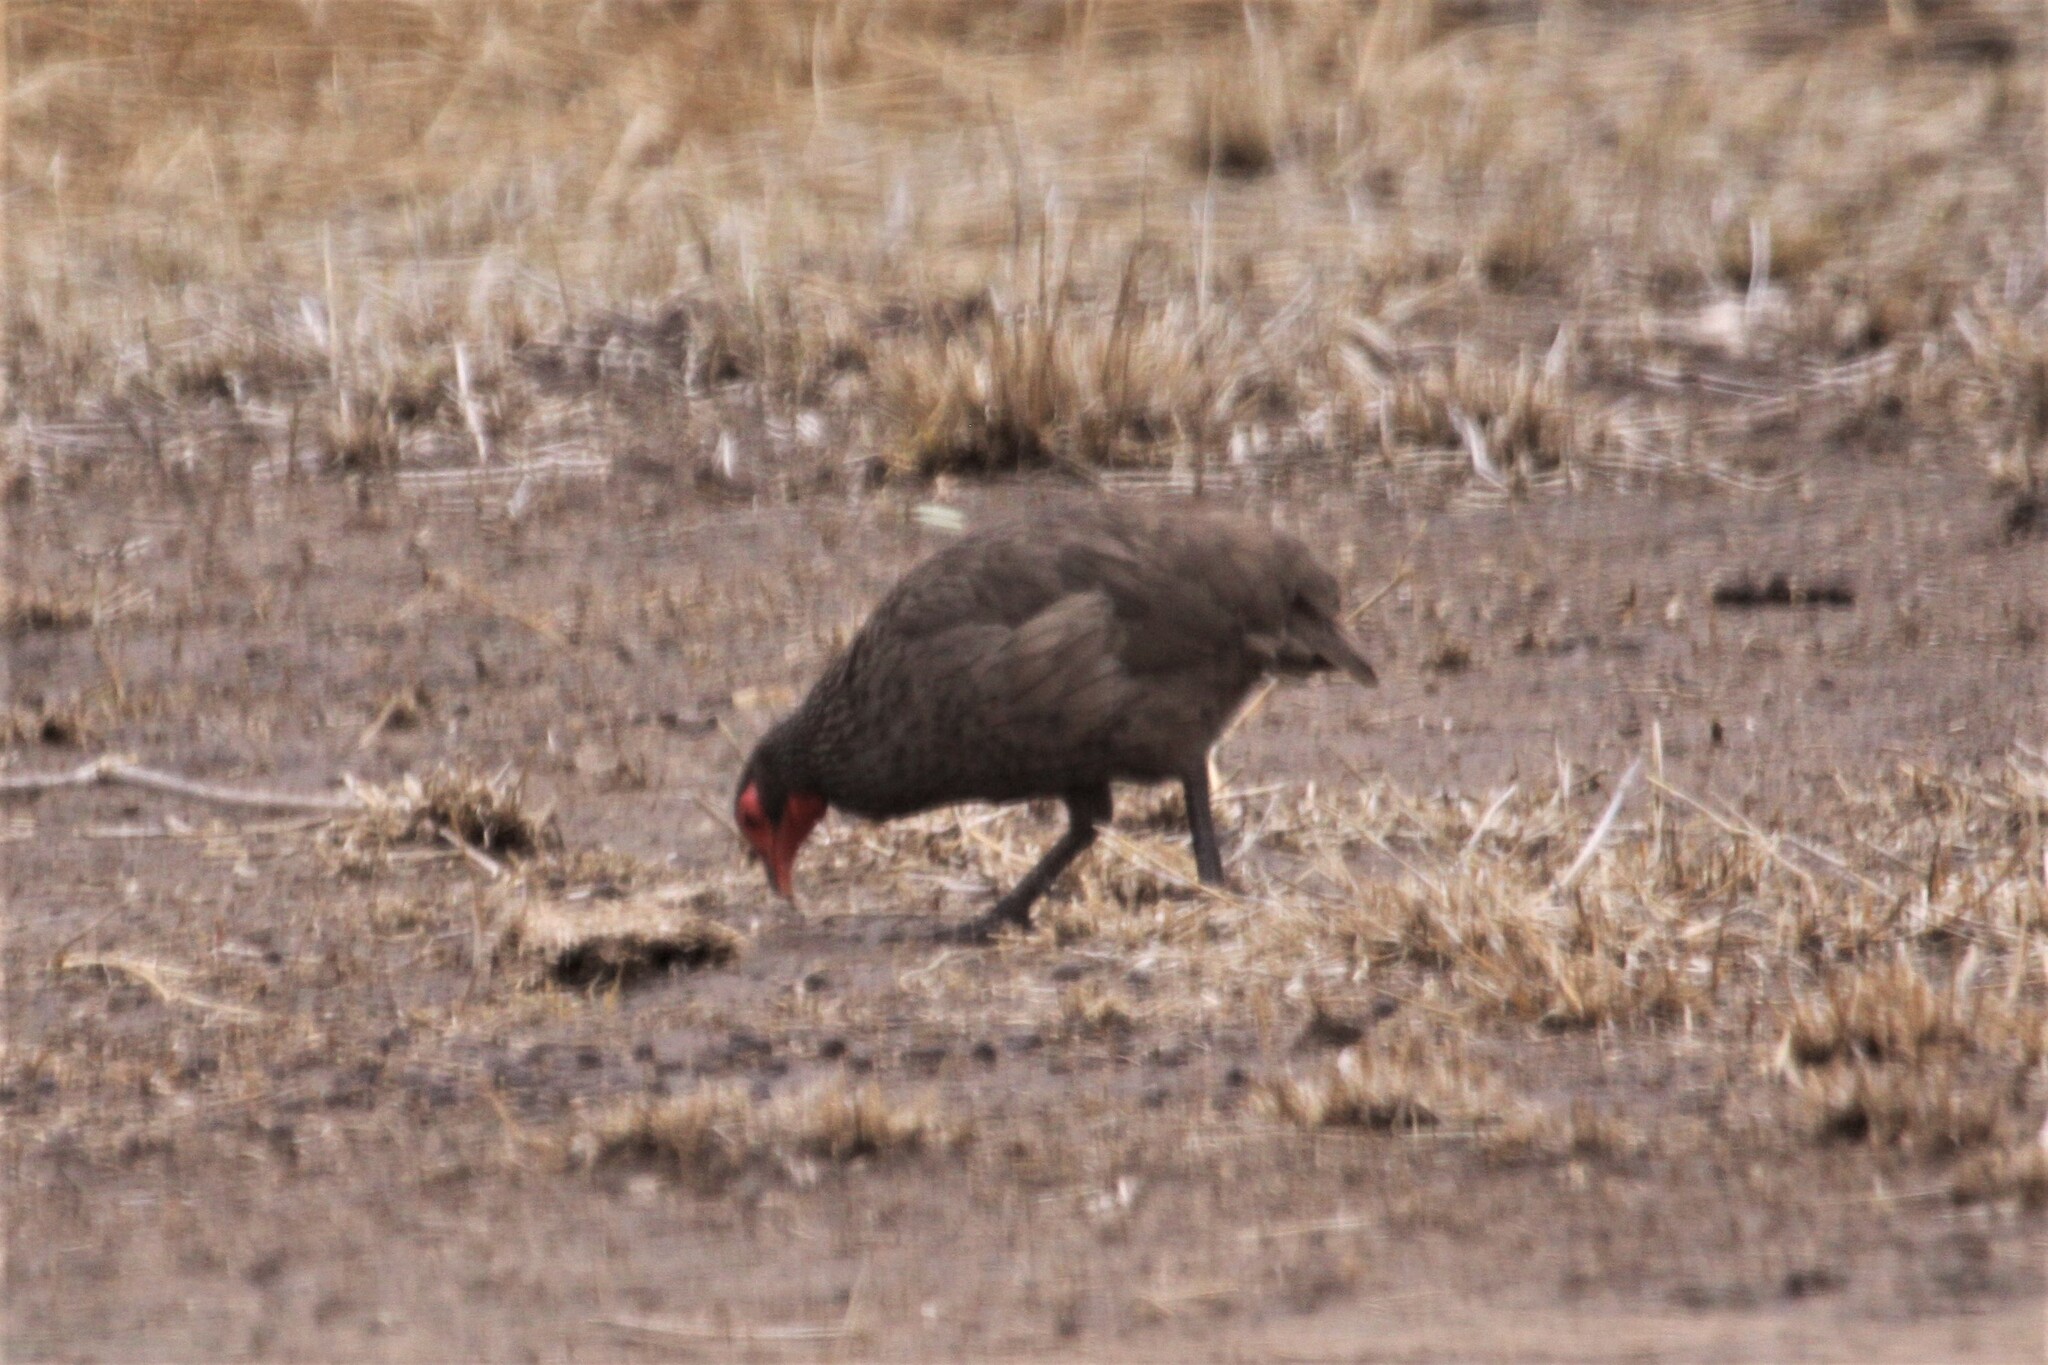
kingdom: Animalia
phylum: Chordata
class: Aves
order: Galliformes
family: Phasianidae
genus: Pternistis
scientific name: Pternistis swainsonii
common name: Swainson's spurfowl
